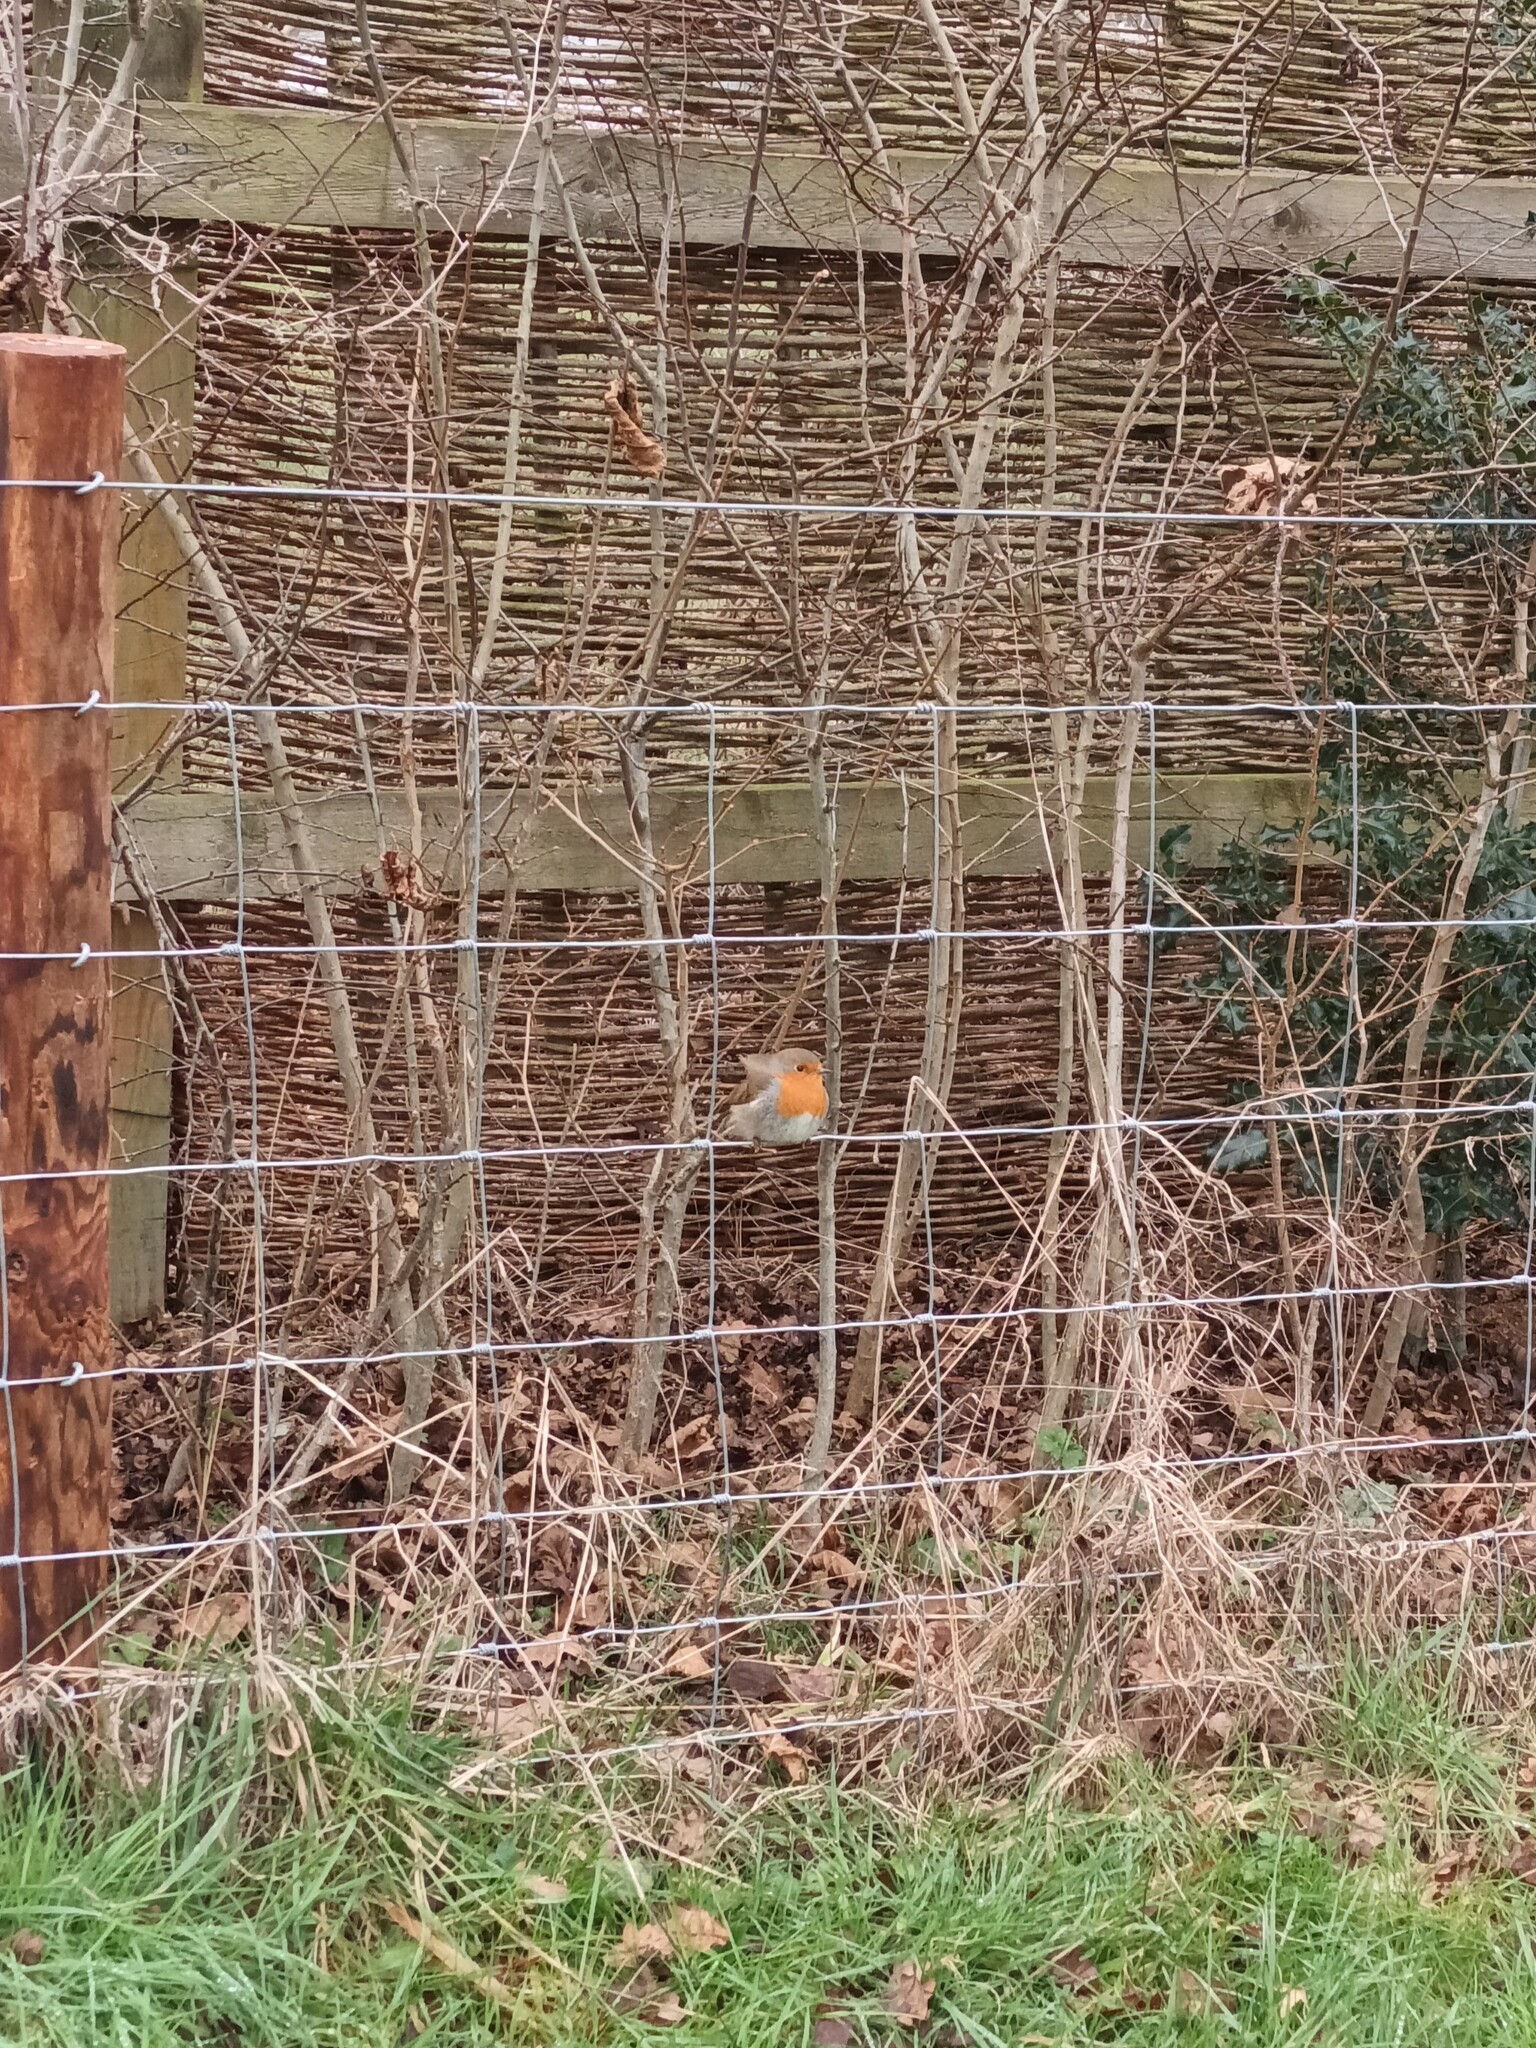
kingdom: Animalia
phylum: Chordata
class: Aves
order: Passeriformes
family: Muscicapidae
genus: Erithacus
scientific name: Erithacus rubecula
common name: European robin
